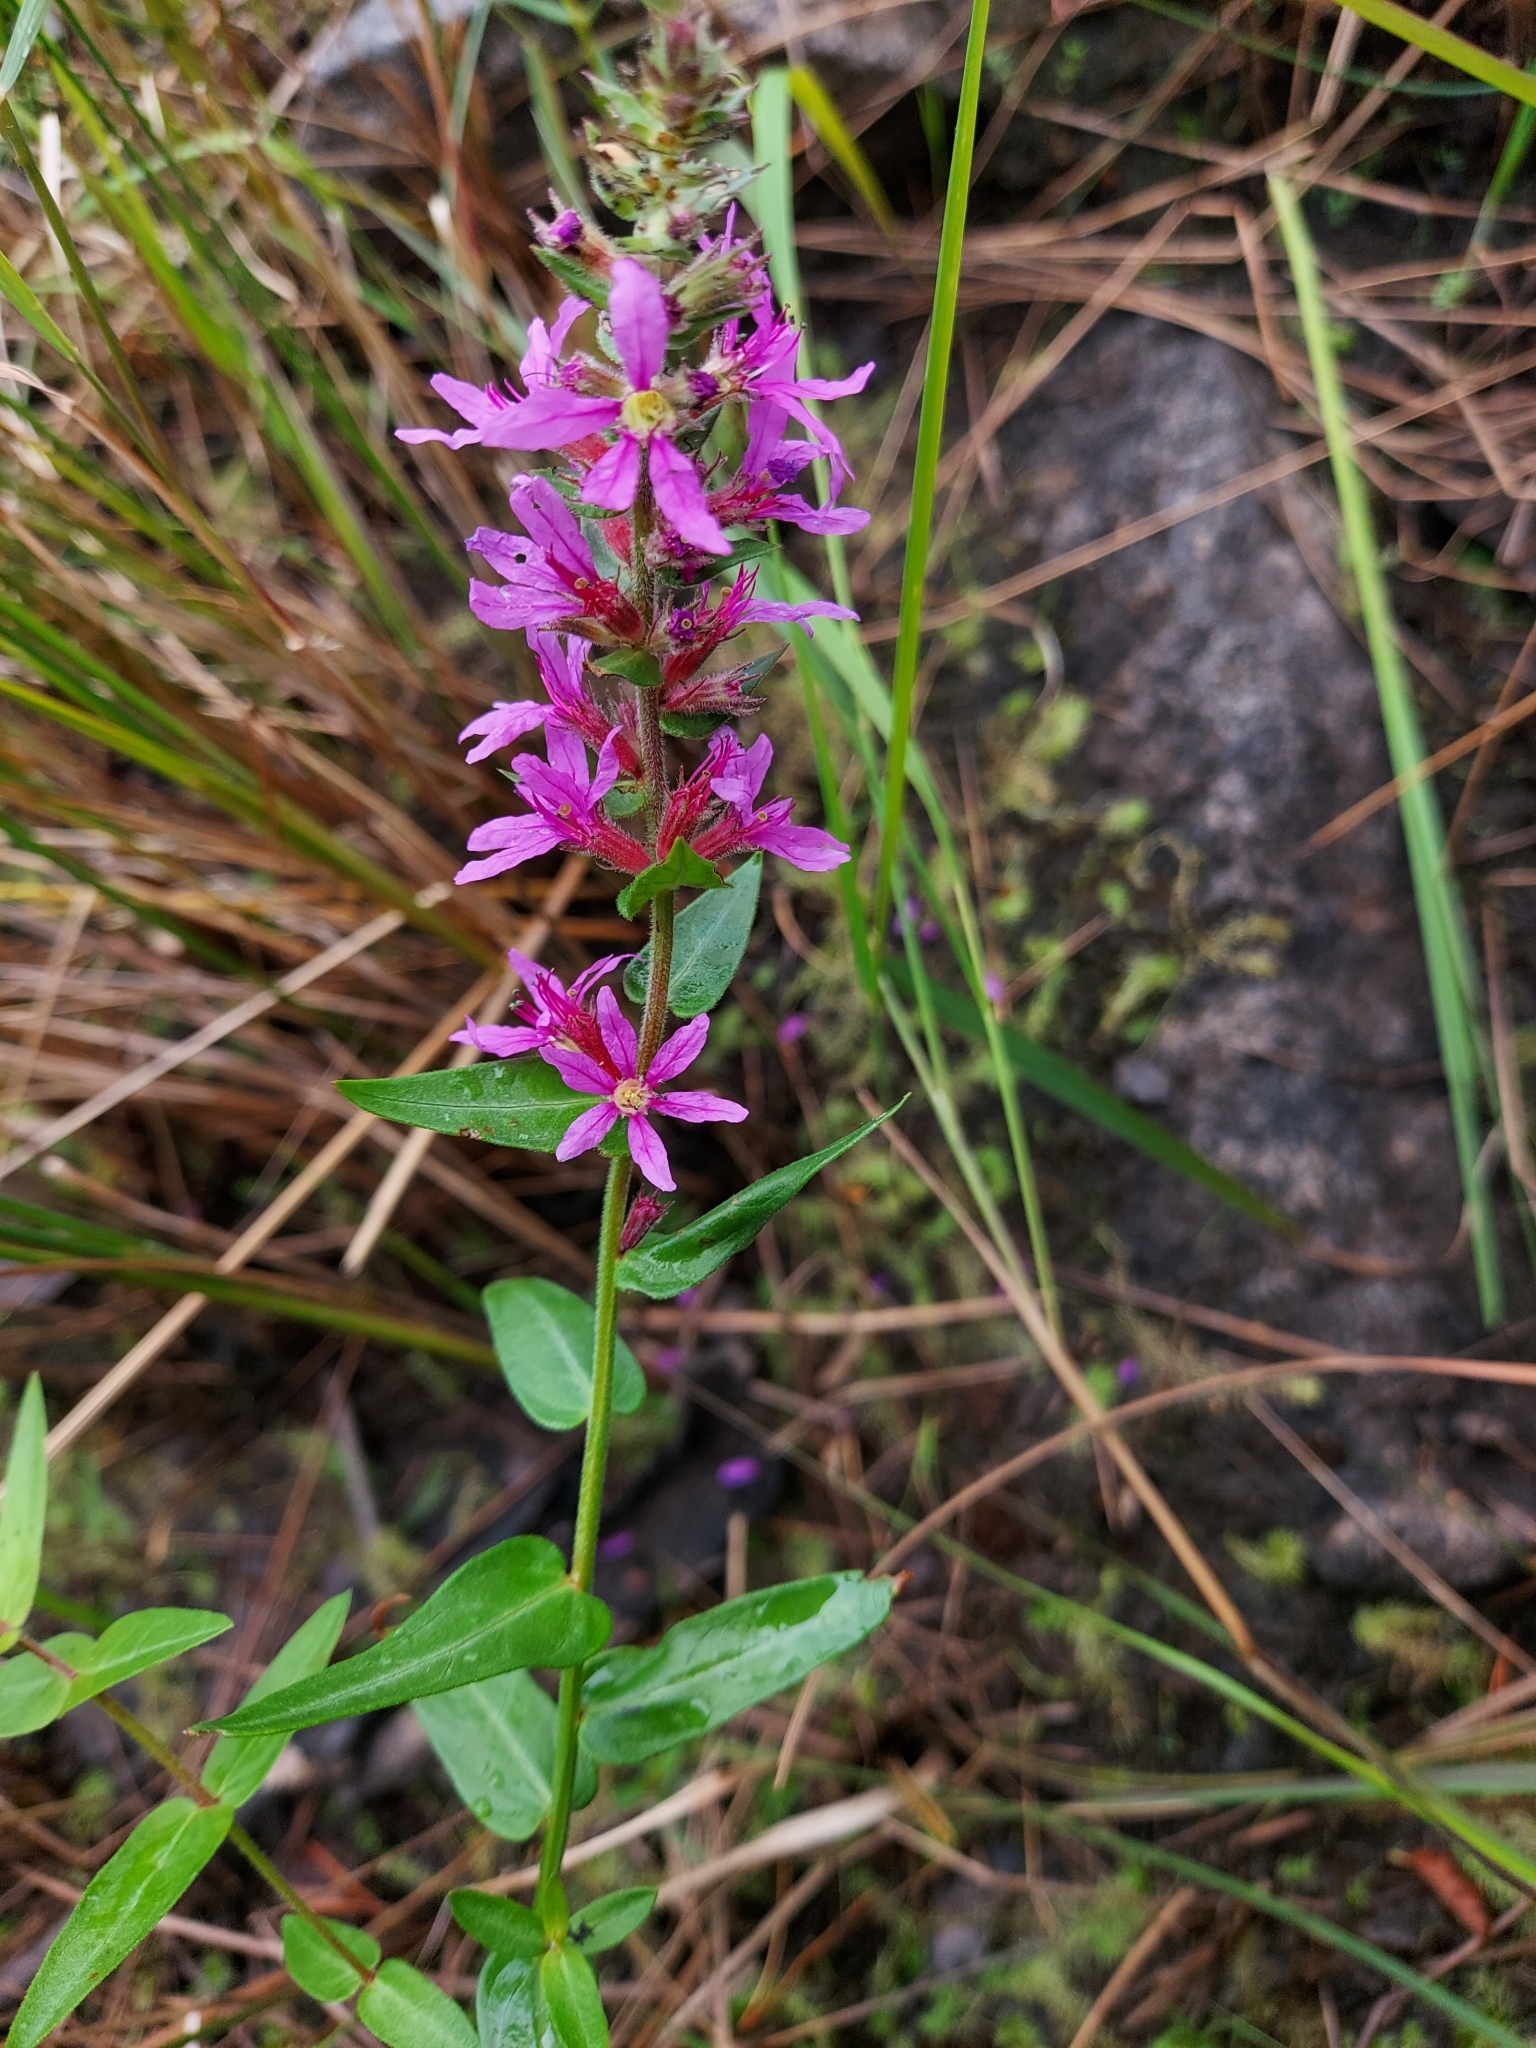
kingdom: Plantae
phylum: Tracheophyta
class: Magnoliopsida
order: Myrtales
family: Lythraceae
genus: Lythrum
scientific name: Lythrum salicaria
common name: Purple loosestrife
